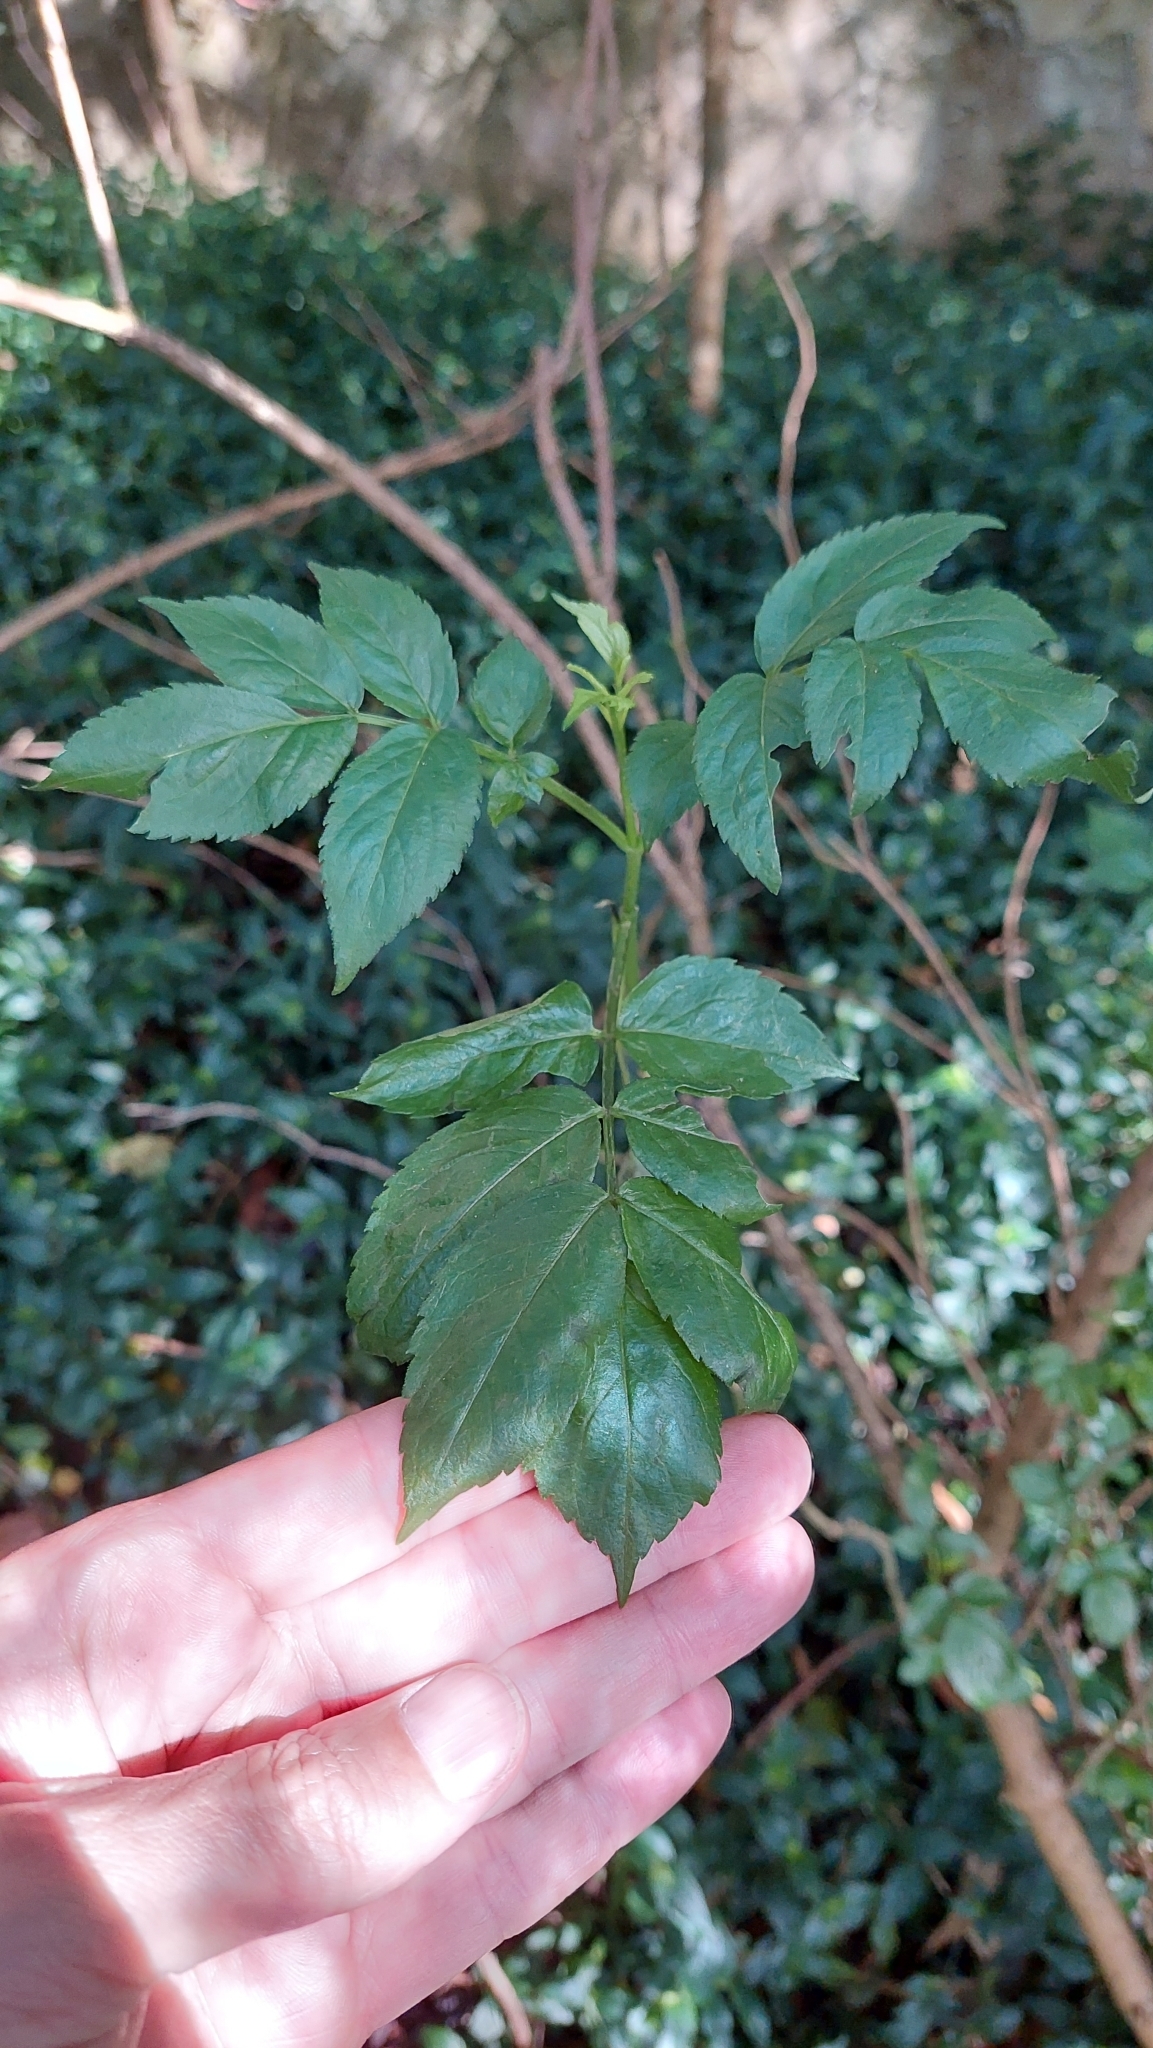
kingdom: Plantae
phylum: Tracheophyta
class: Magnoliopsida
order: Dipsacales
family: Viburnaceae
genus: Sambucus
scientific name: Sambucus nigra
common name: Elder
